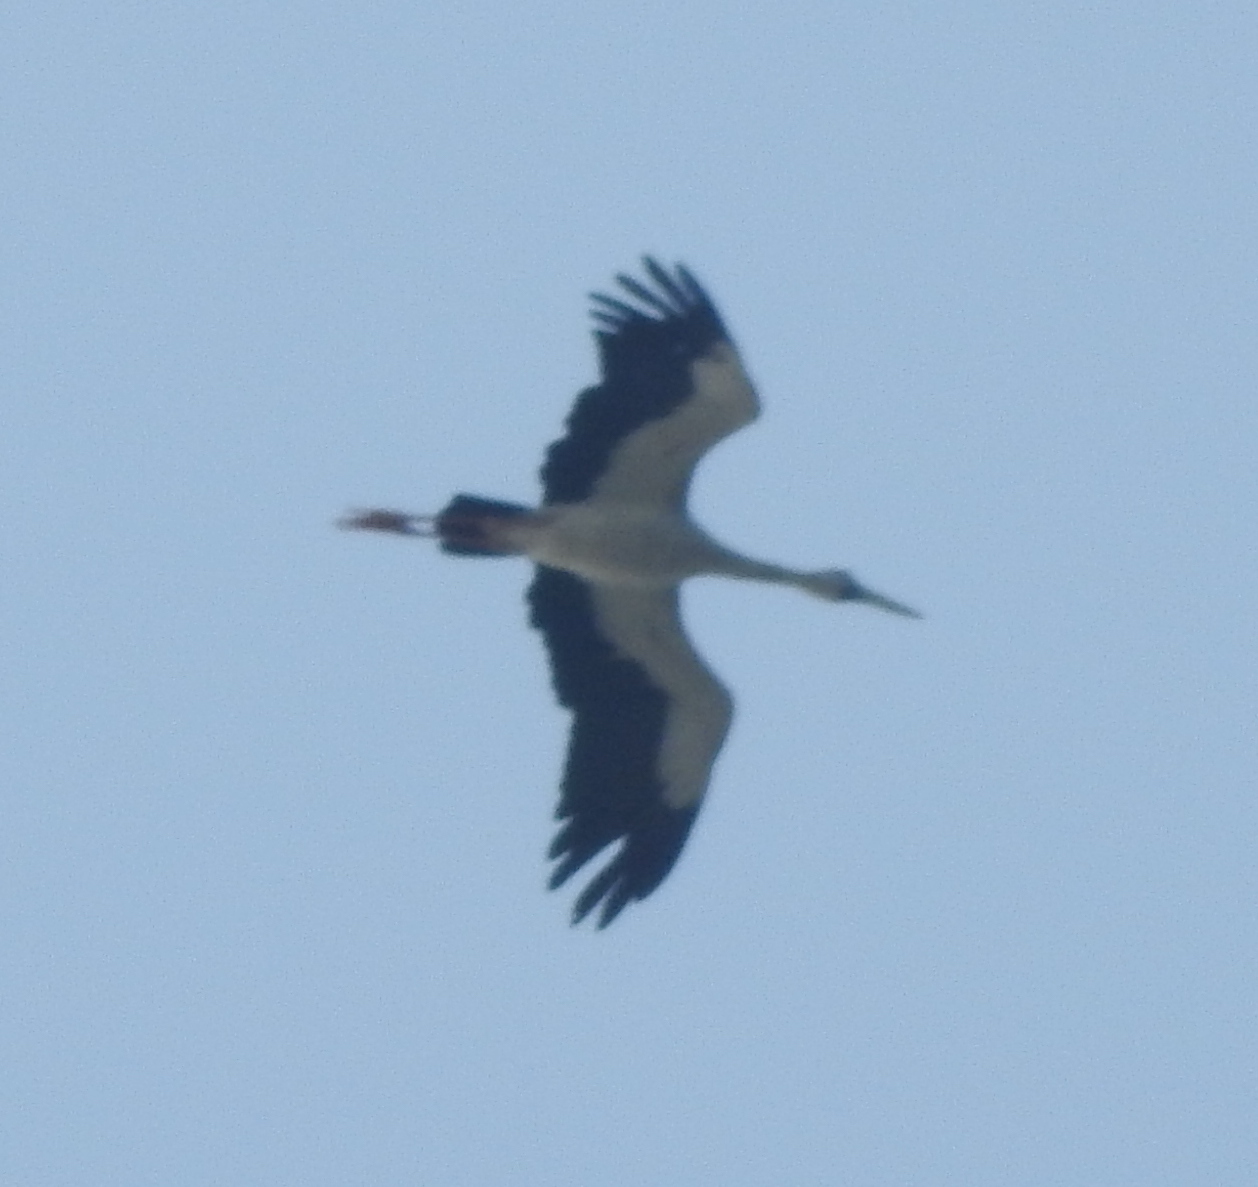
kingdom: Animalia
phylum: Chordata
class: Aves
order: Ciconiiformes
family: Ciconiidae
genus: Anastomus
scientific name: Anastomus oscitans
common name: Asian openbill
